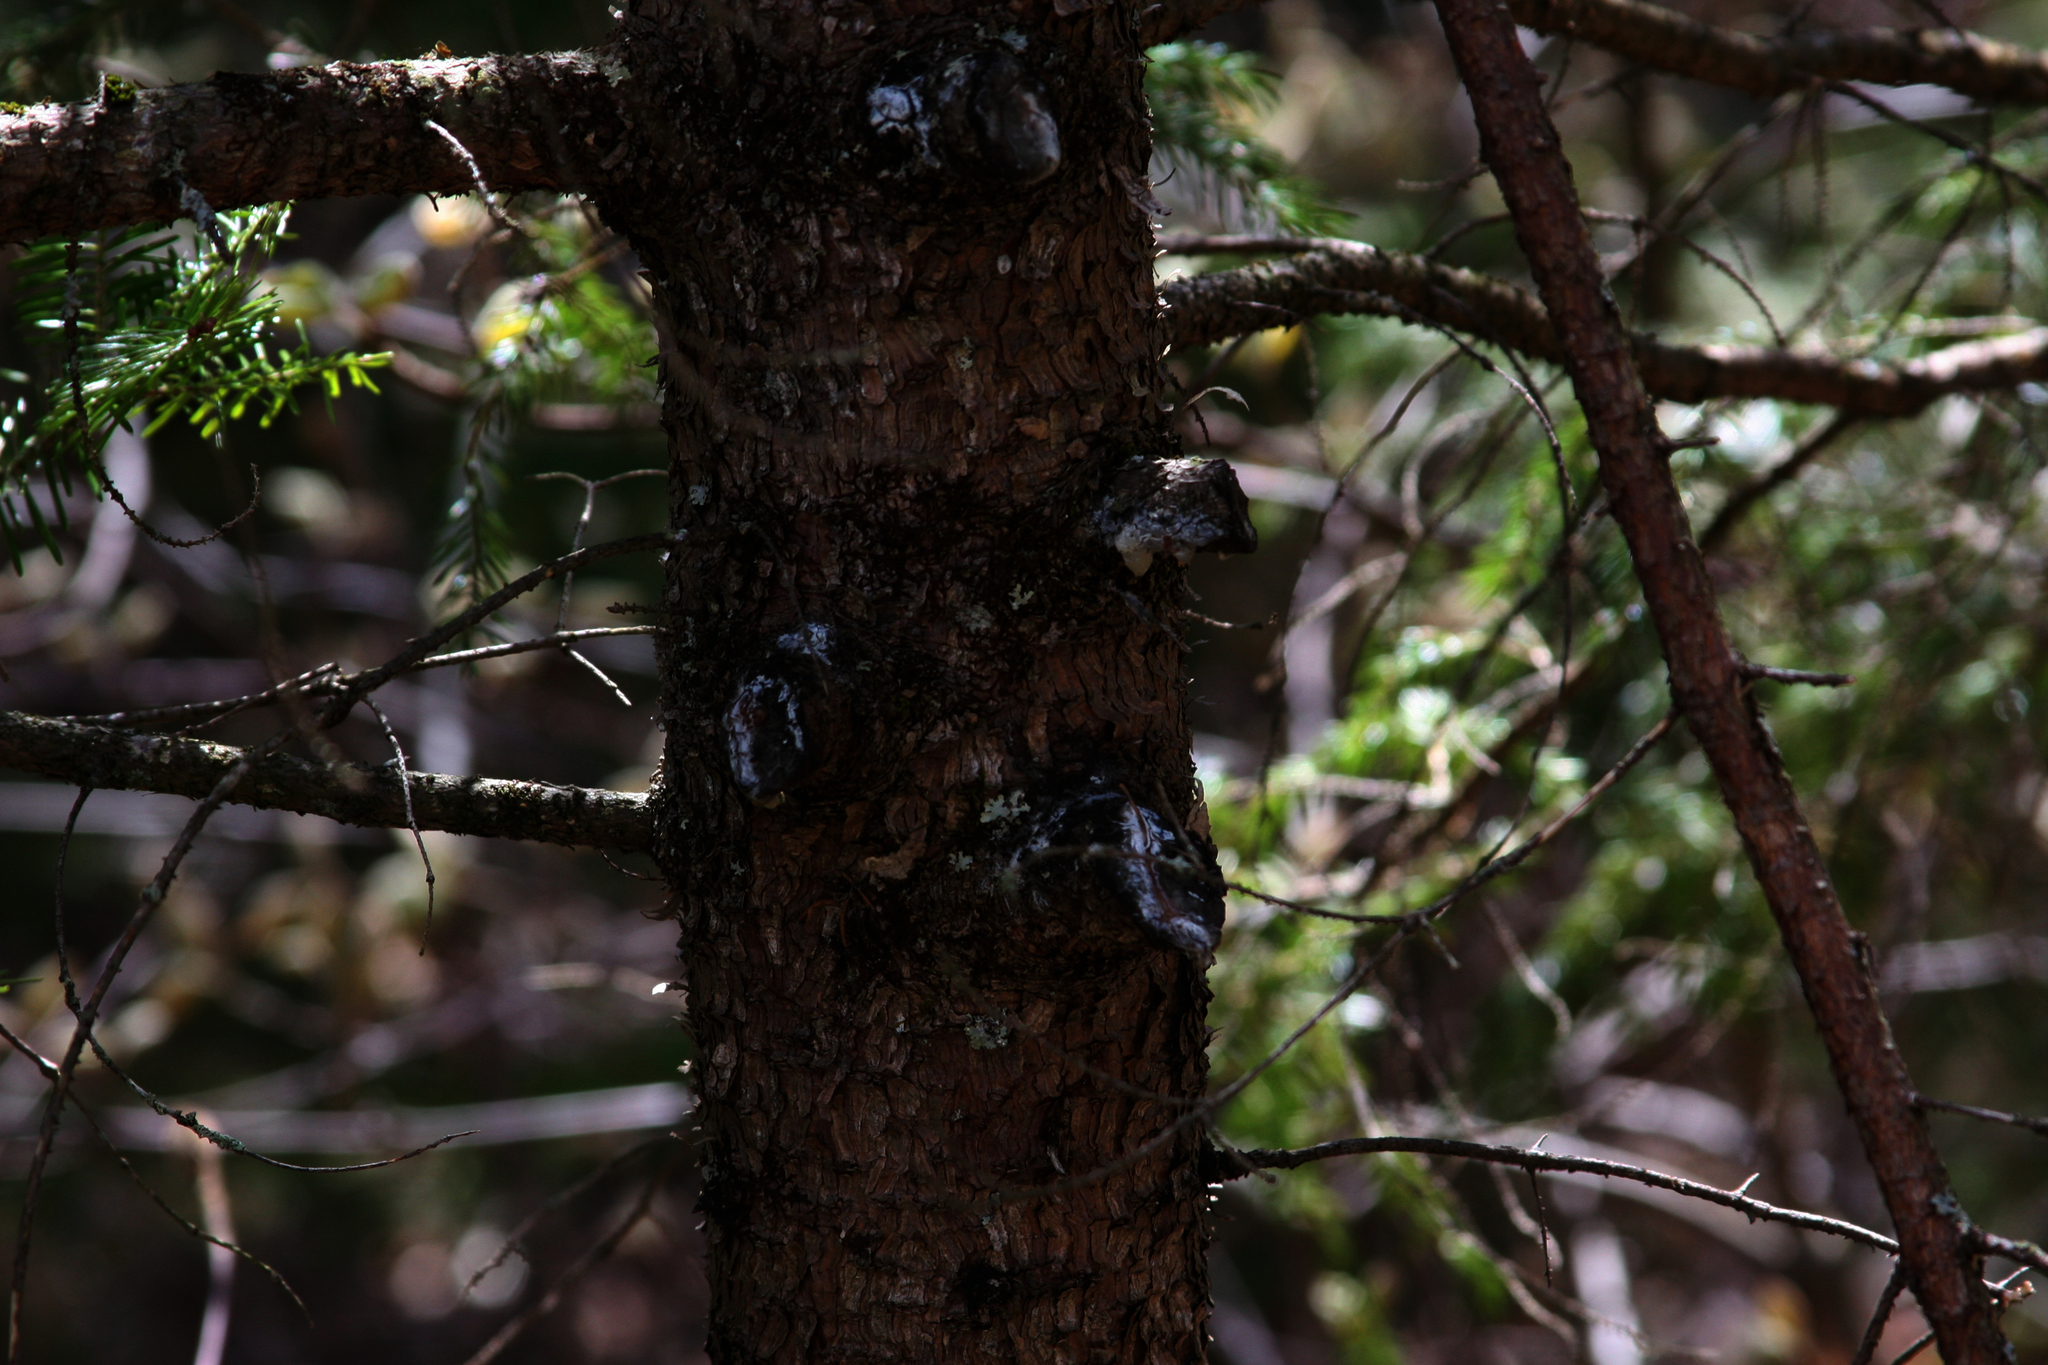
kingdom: Plantae
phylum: Tracheophyta
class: Pinopsida
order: Pinales
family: Pinaceae
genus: Picea
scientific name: Picea rubens
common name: Red spruce
